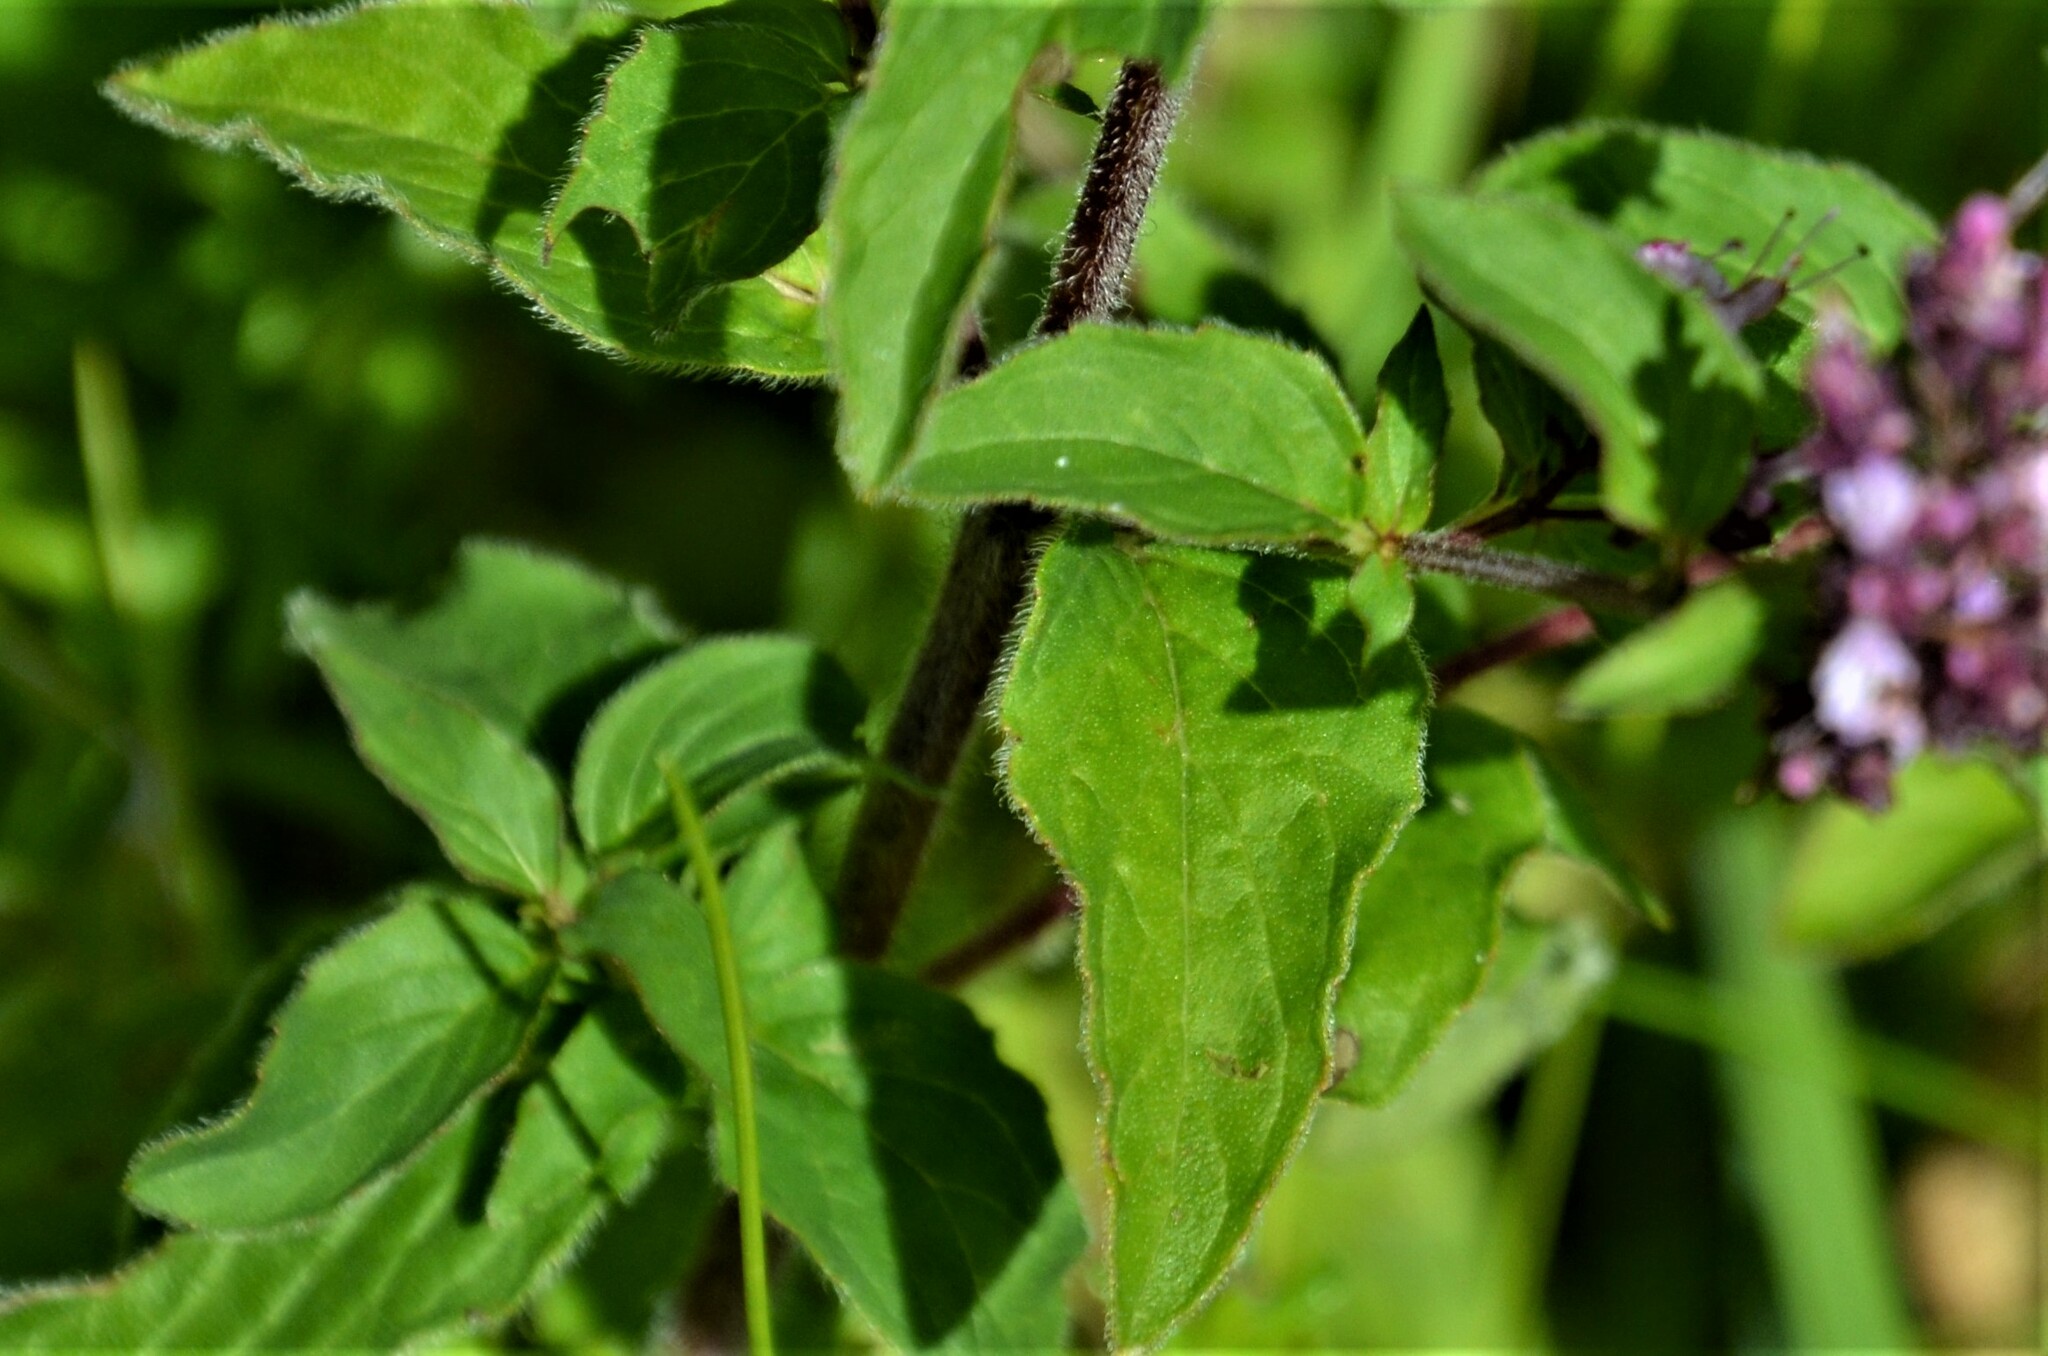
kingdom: Plantae
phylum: Tracheophyta
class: Magnoliopsida
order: Lamiales
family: Lamiaceae
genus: Origanum
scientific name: Origanum vulgare
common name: Wild marjoram
